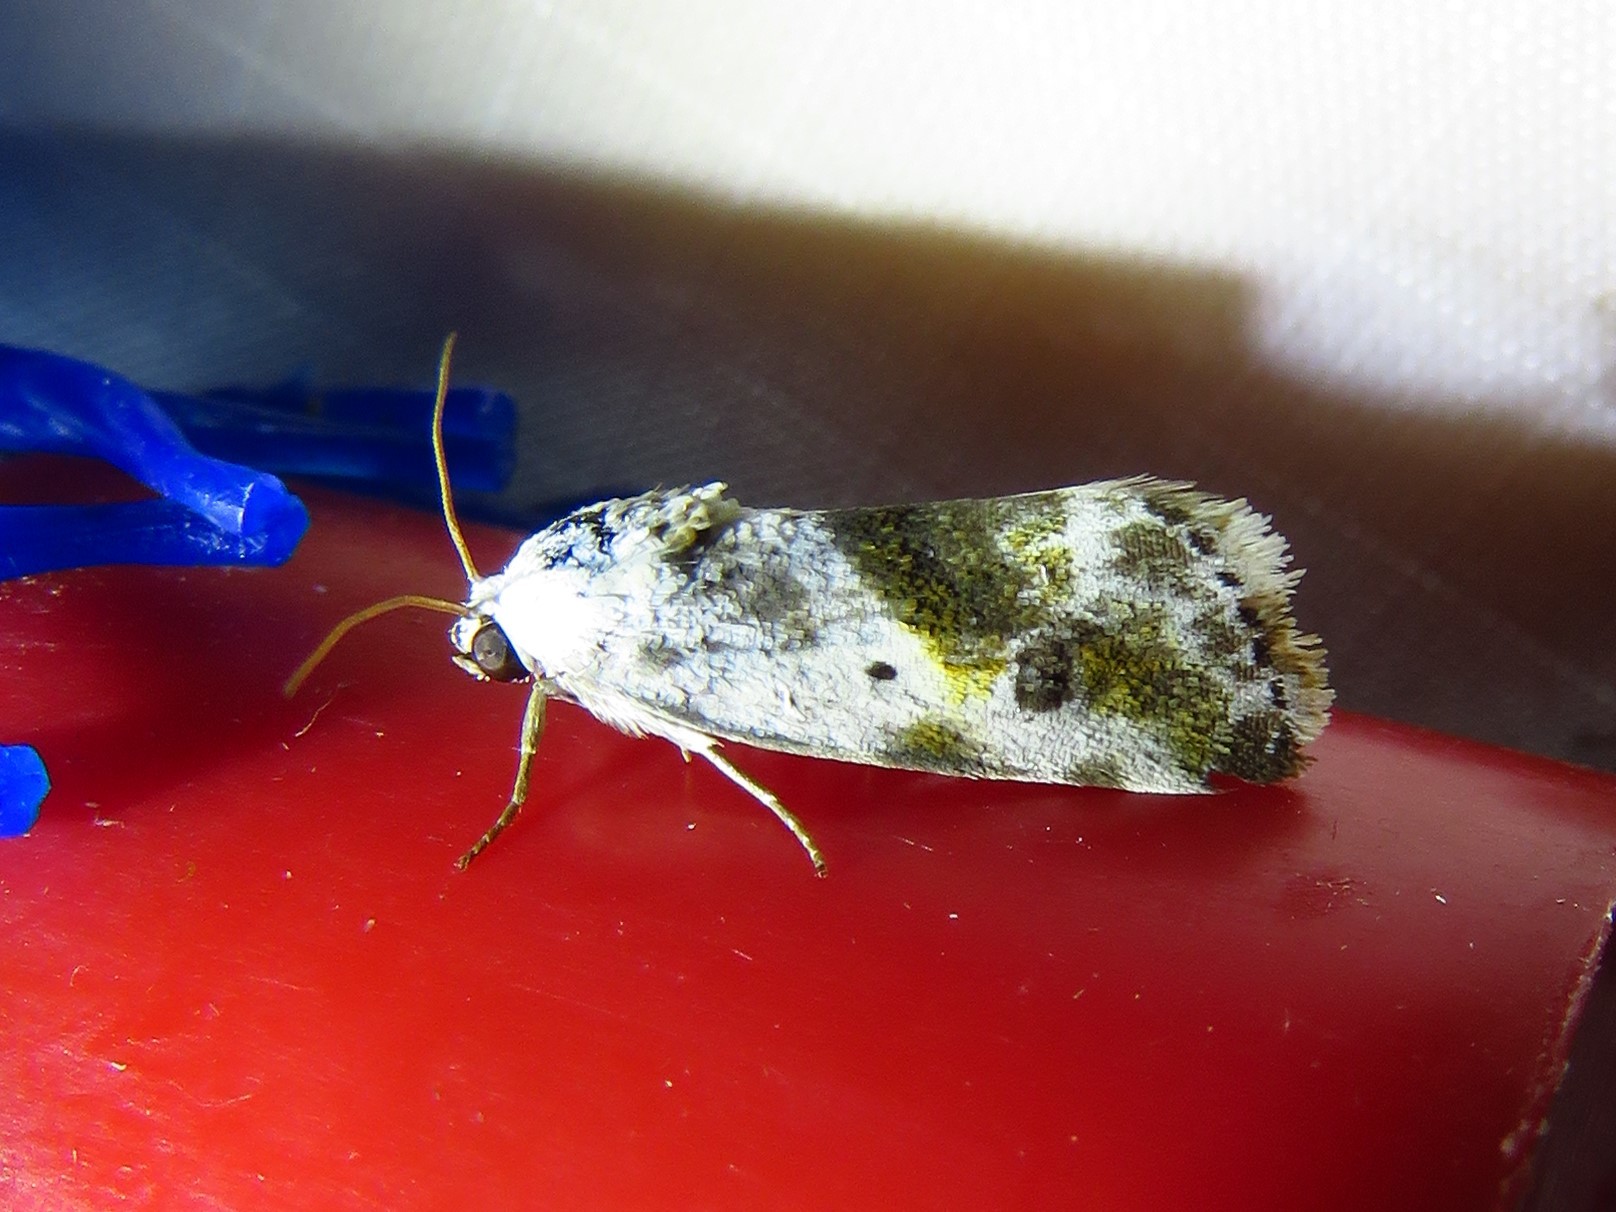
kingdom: Animalia
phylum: Arthropoda
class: Insecta
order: Lepidoptera
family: Noctuidae
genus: Acontia
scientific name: Acontia candefacta
